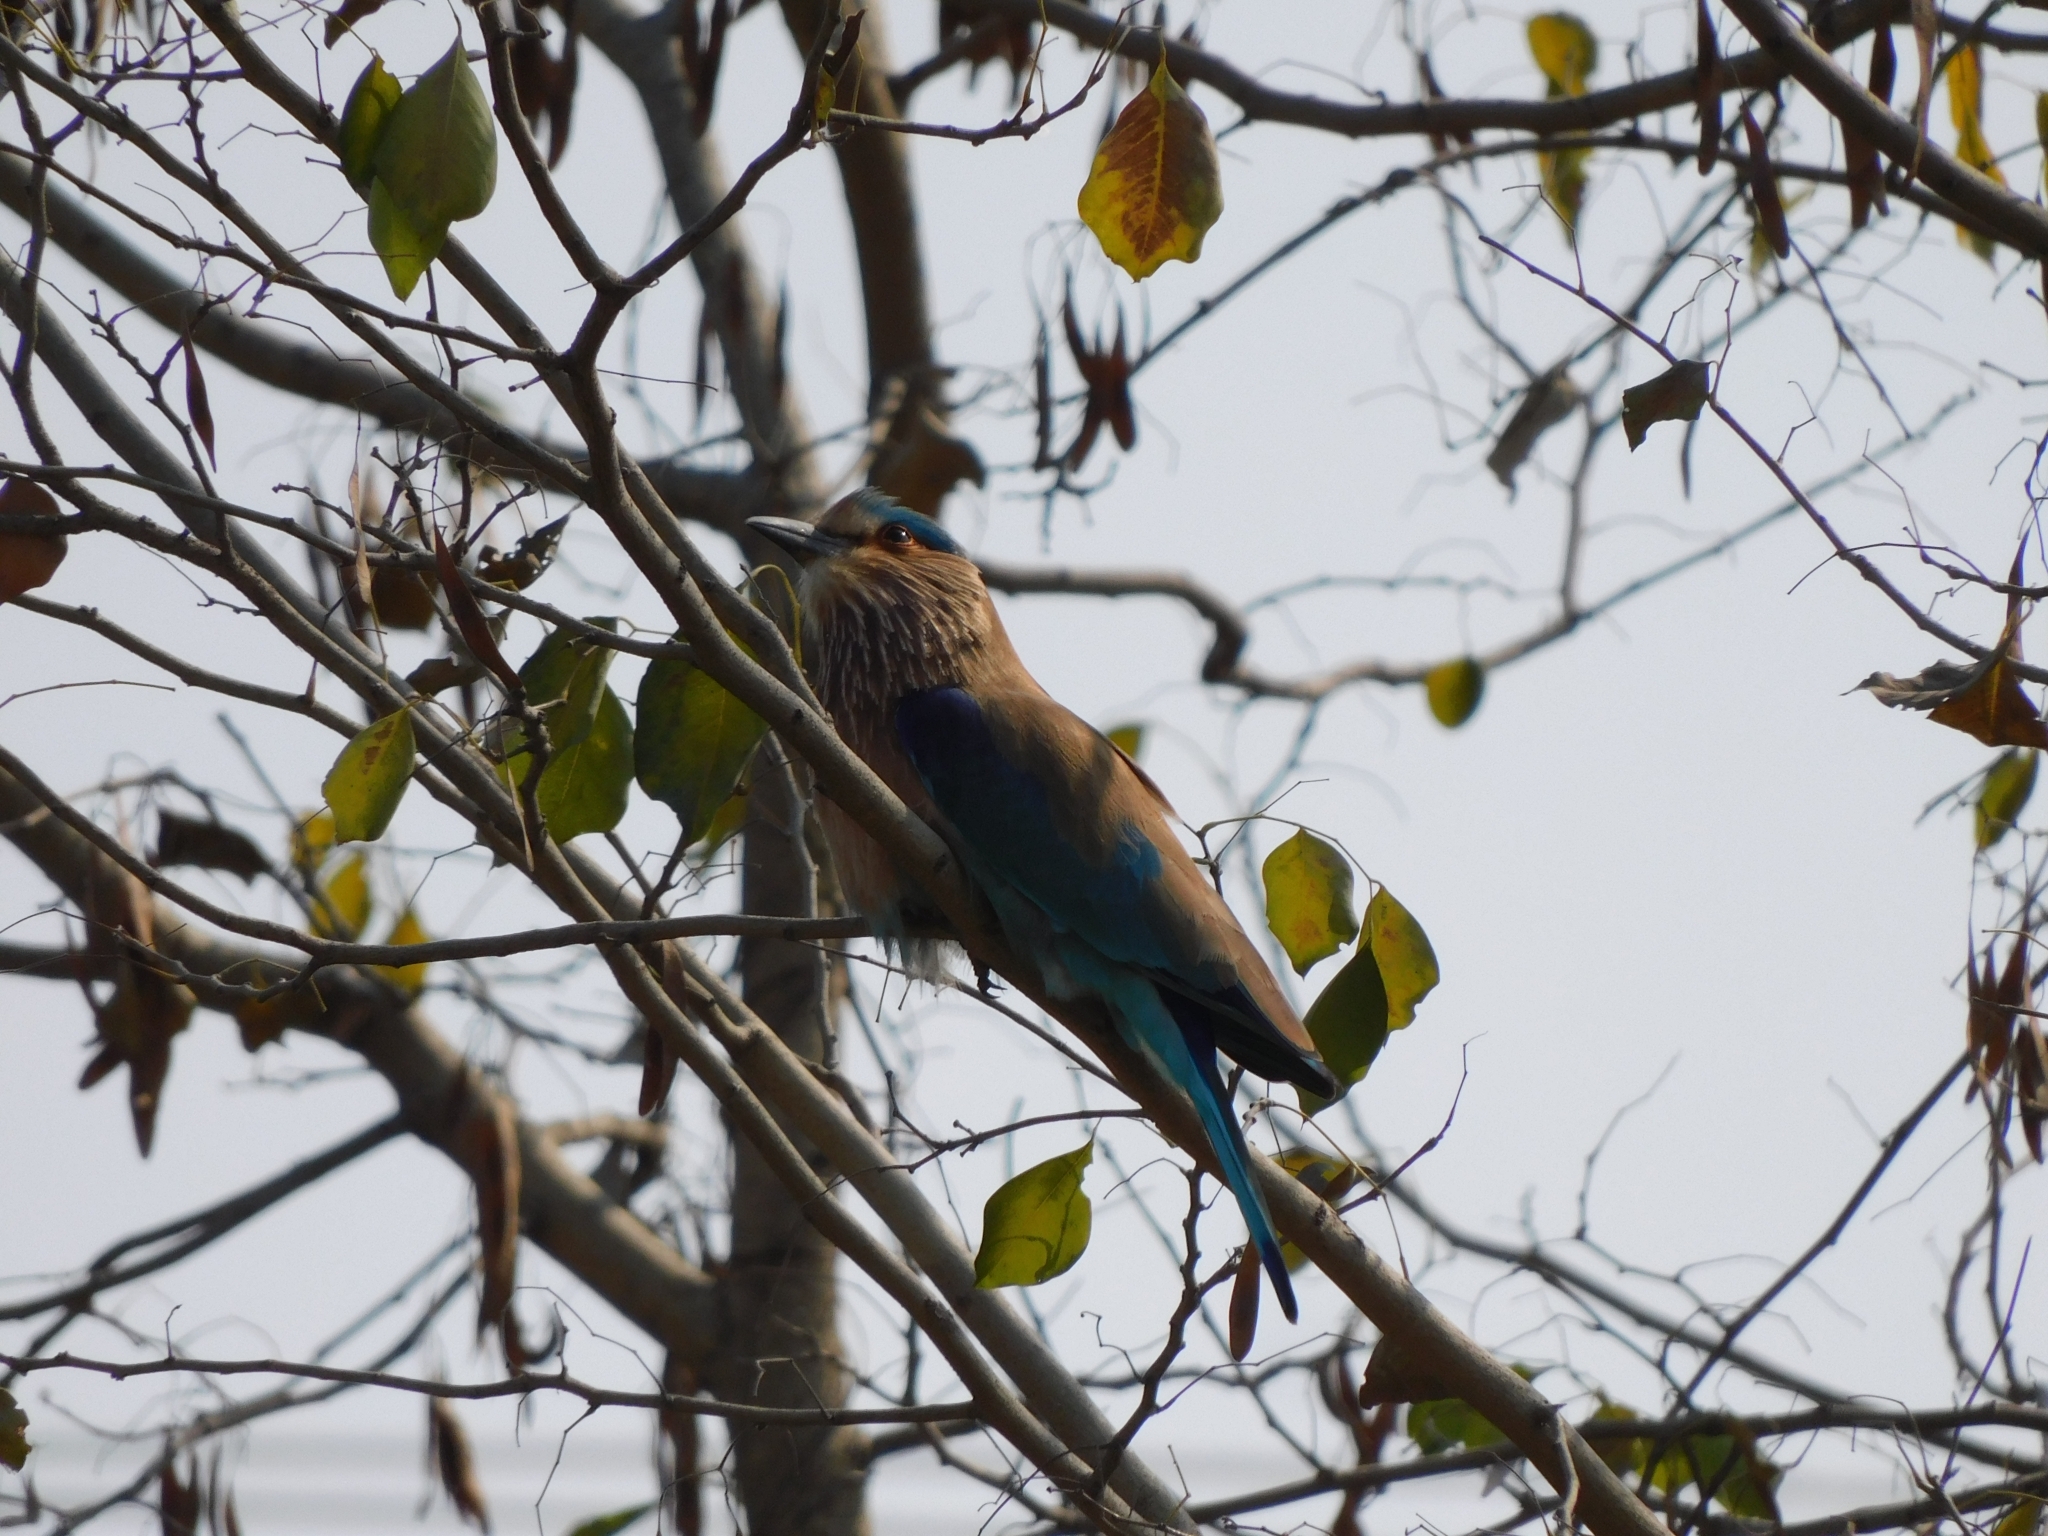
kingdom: Animalia
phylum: Chordata
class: Aves
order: Coraciiformes
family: Coraciidae
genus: Coracias
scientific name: Coracias benghalensis
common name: Indian roller
